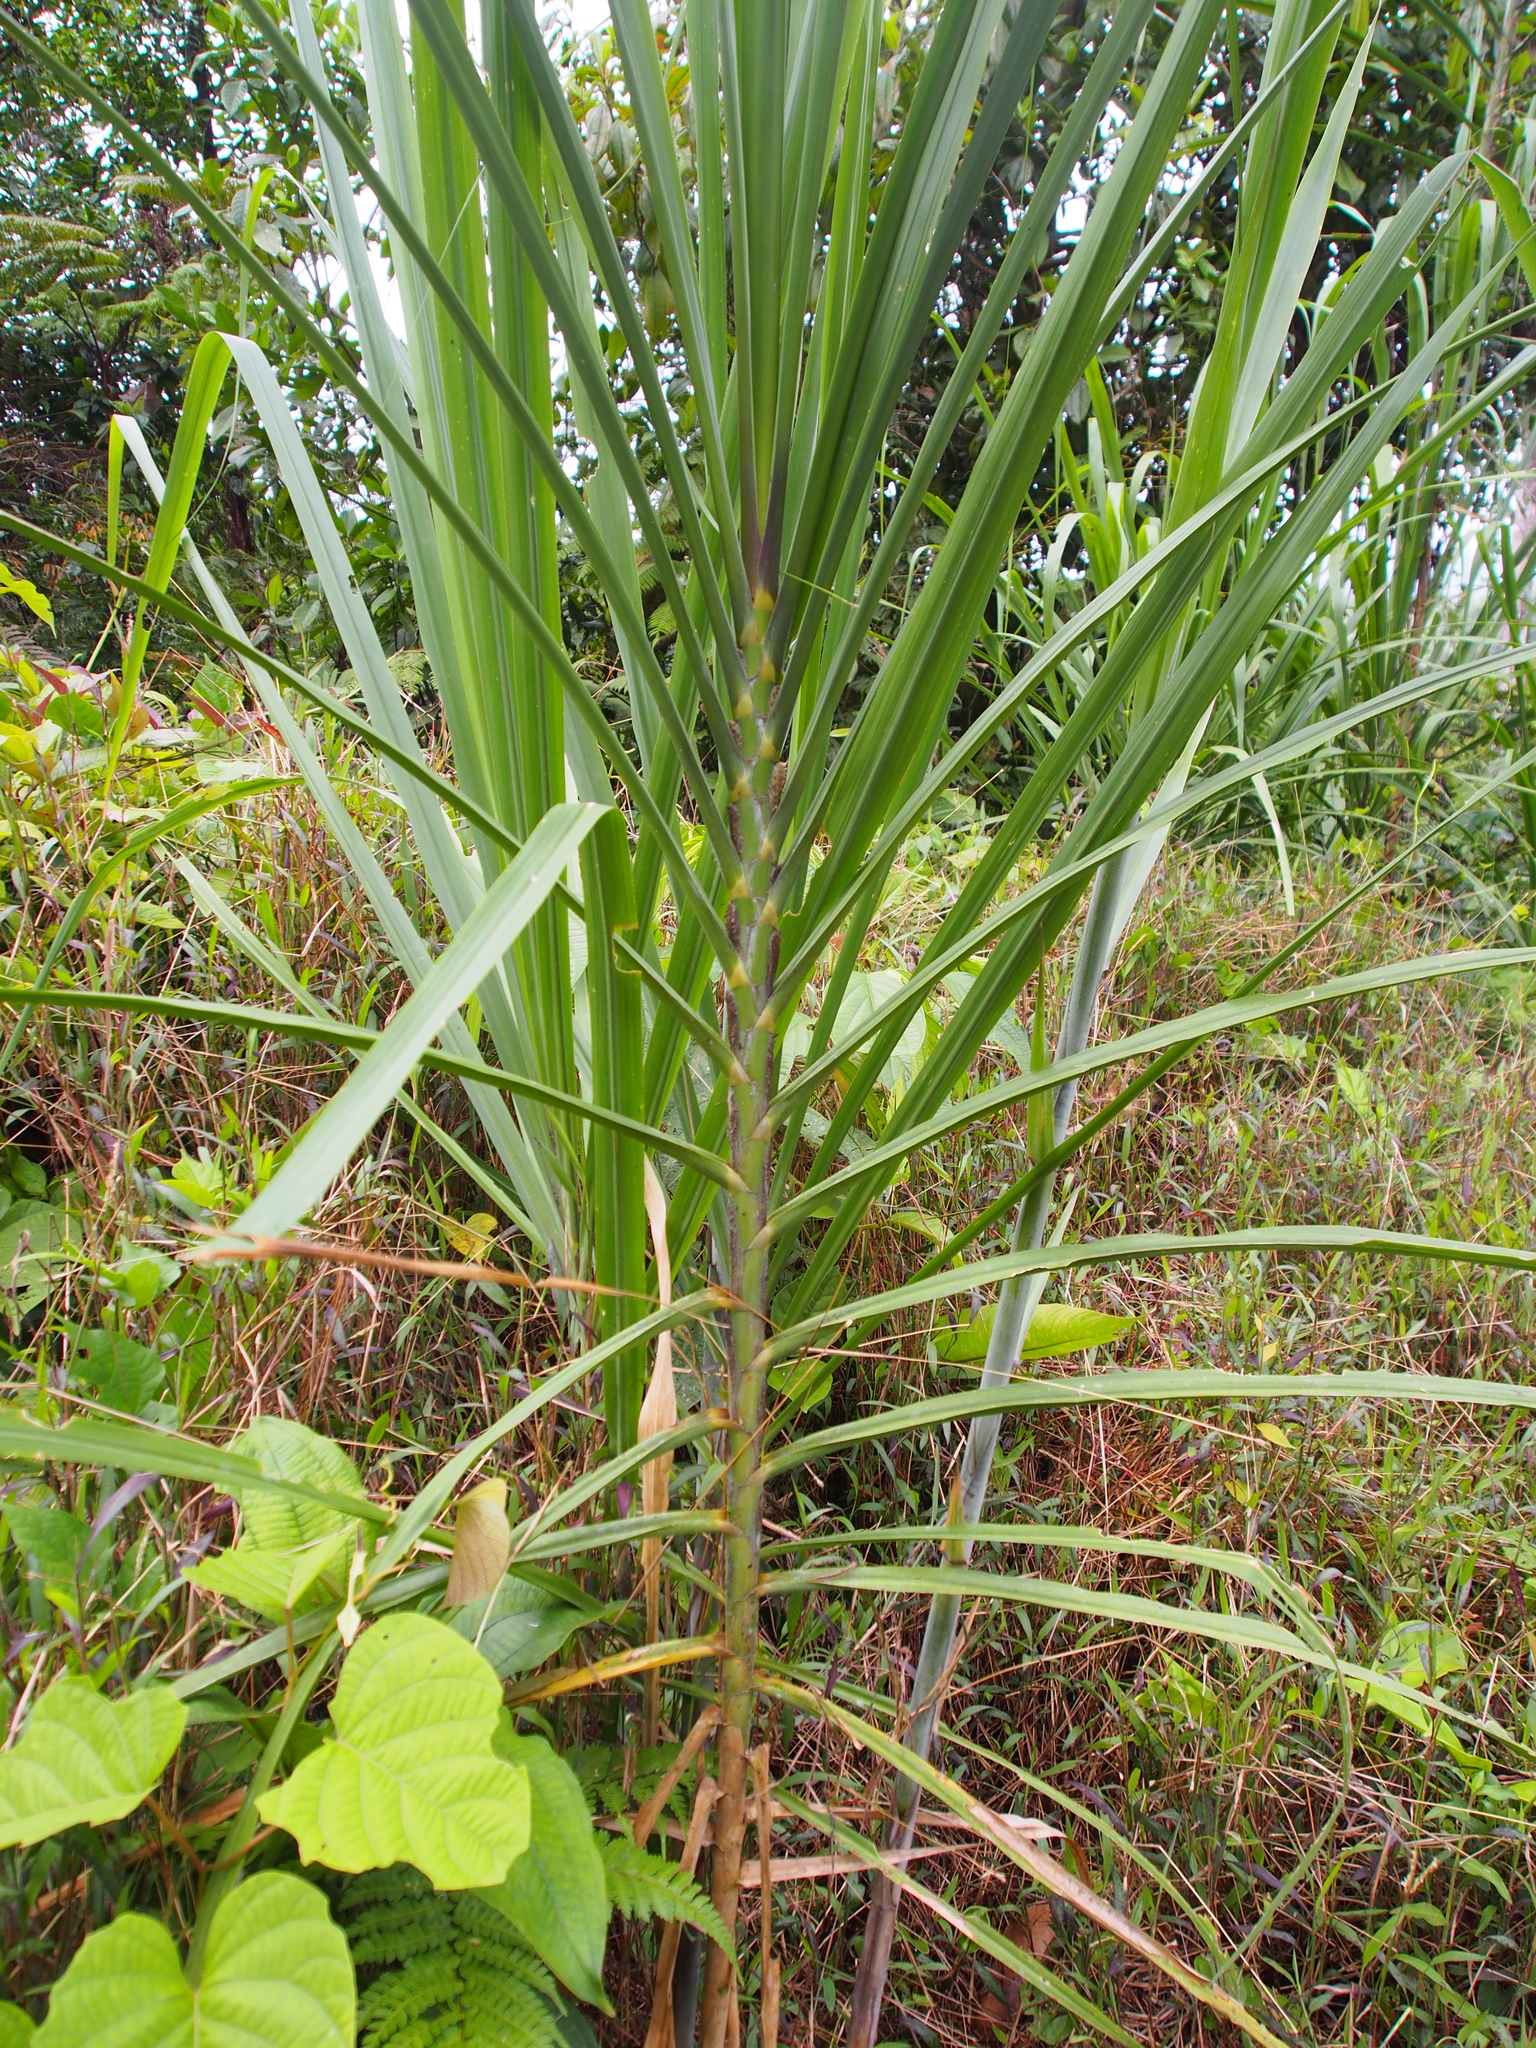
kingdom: Plantae
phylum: Tracheophyta
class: Liliopsida
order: Poales
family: Poaceae
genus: Gynerium
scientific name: Gynerium sagittatum
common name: Wild cane
